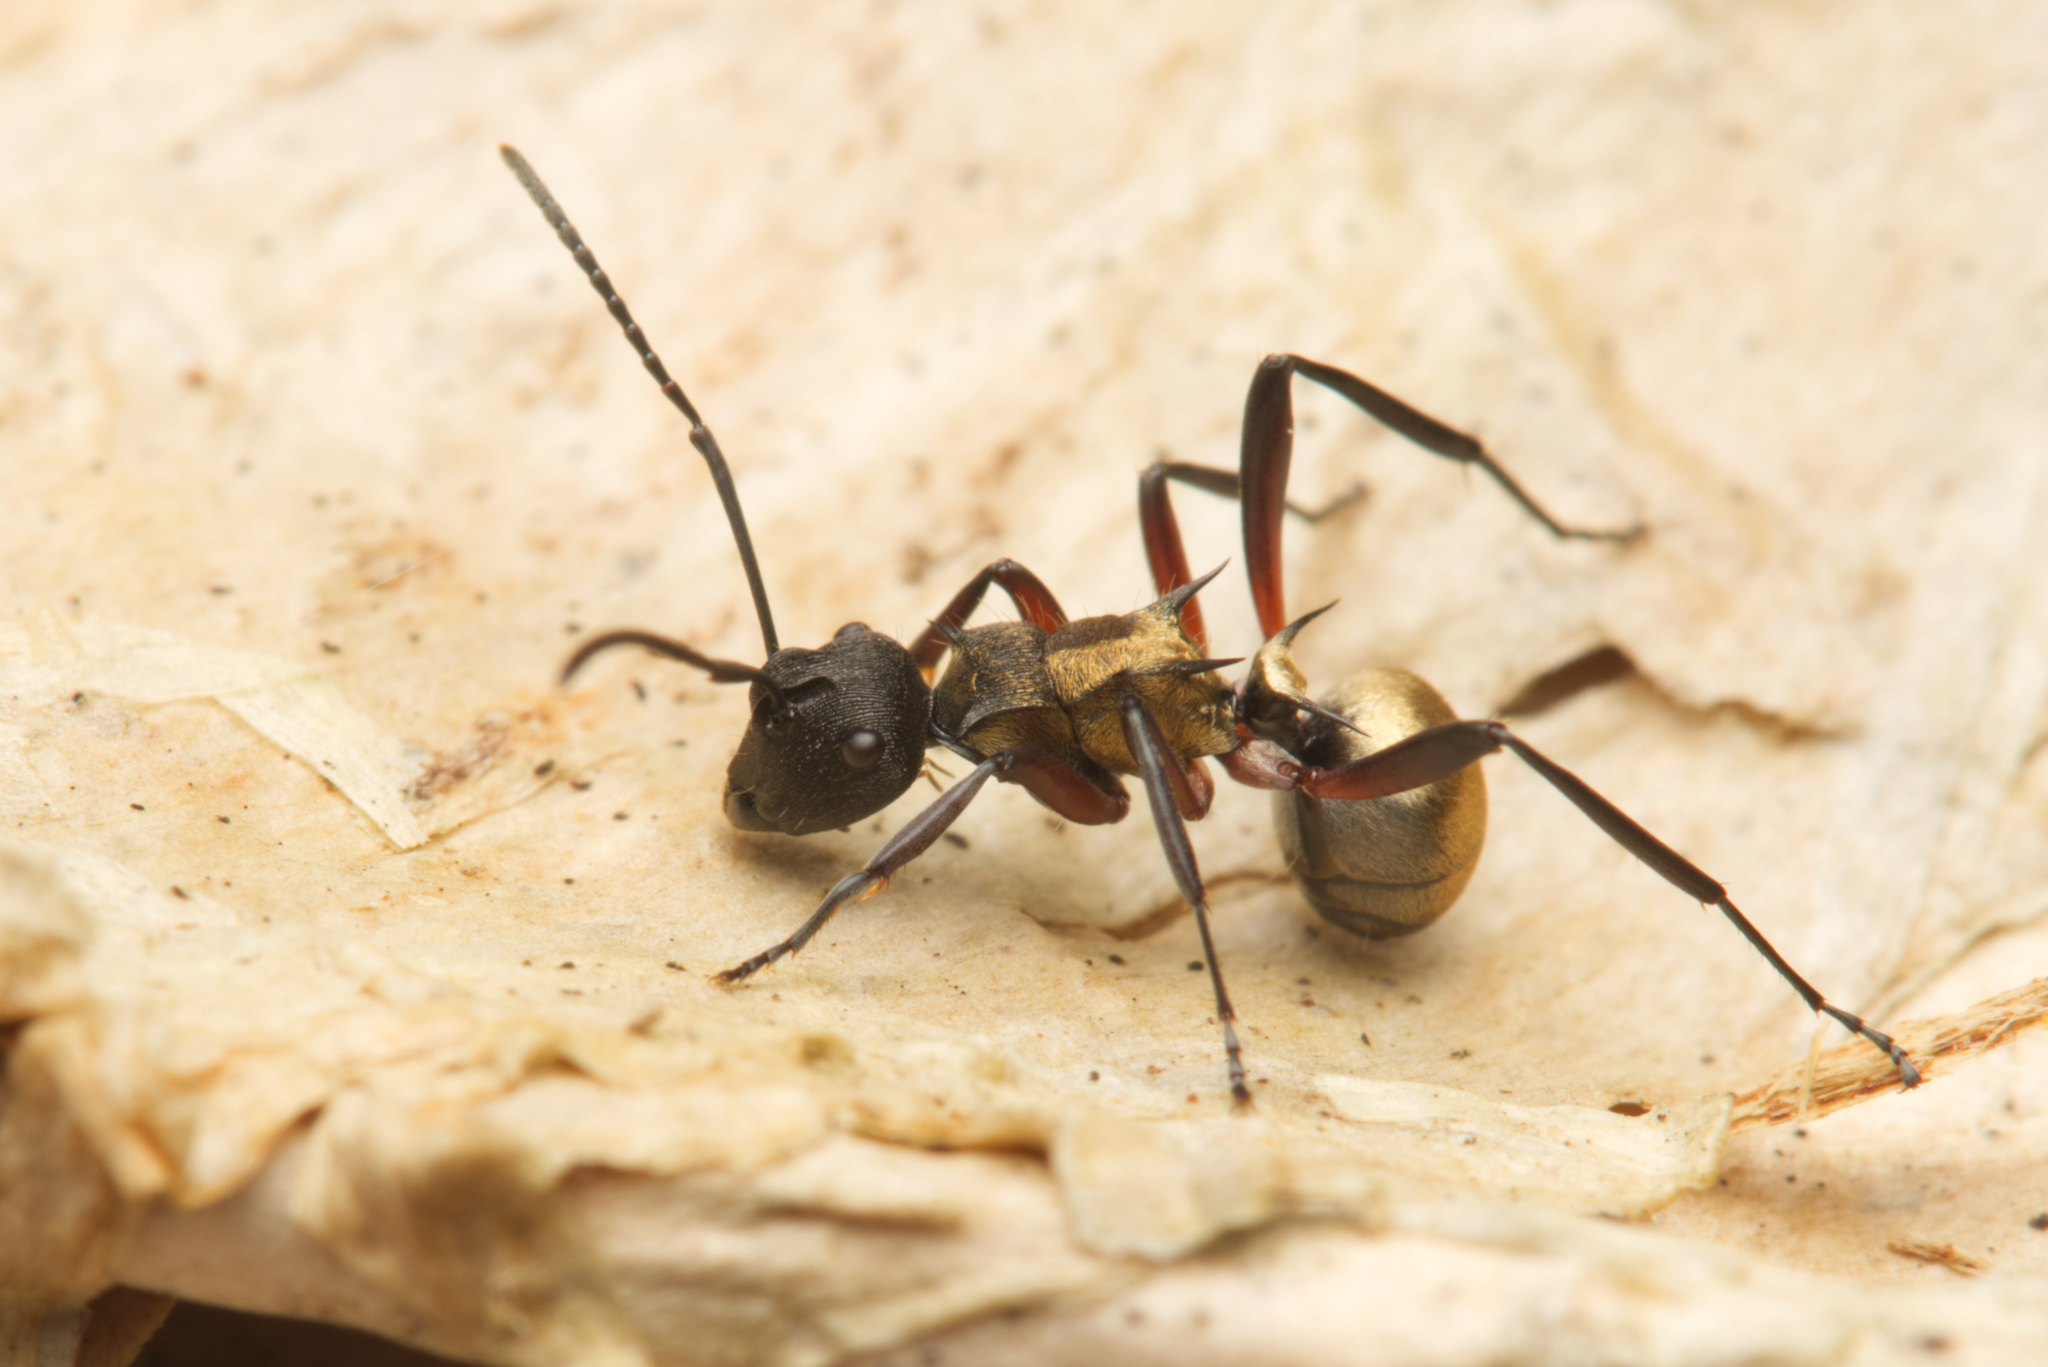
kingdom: Animalia
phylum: Arthropoda
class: Insecta
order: Hymenoptera
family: Formicidae
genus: Polyrhachis
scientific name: Polyrhachis rufifemur
